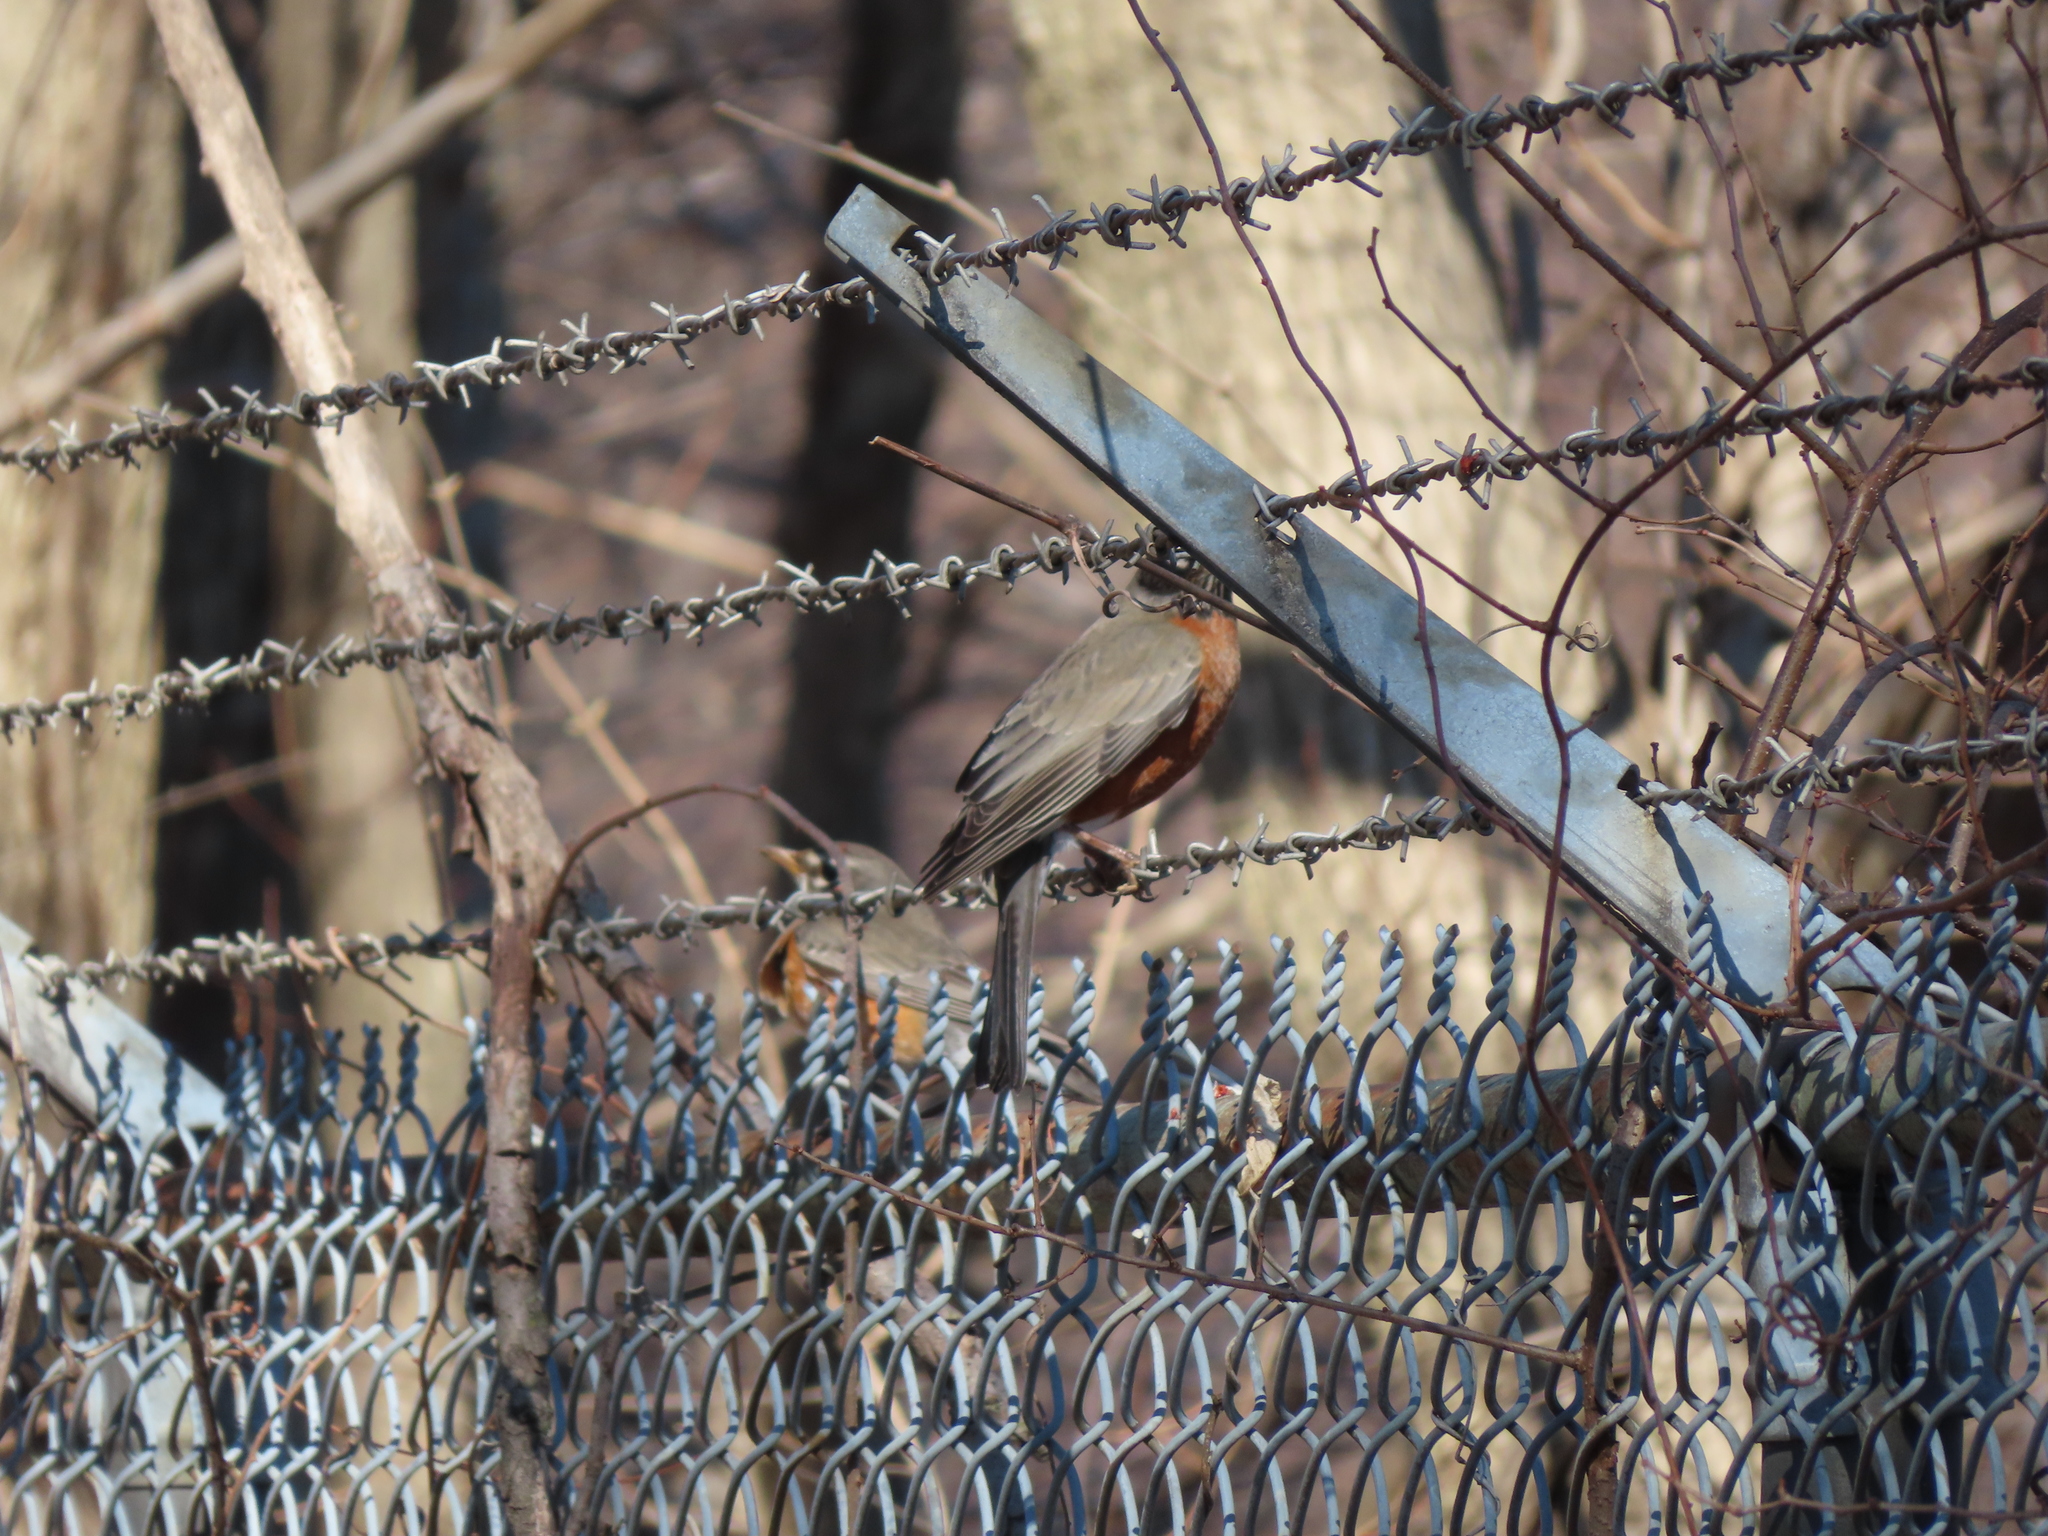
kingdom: Animalia
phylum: Chordata
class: Aves
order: Passeriformes
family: Turdidae
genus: Turdus
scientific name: Turdus migratorius
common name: American robin
